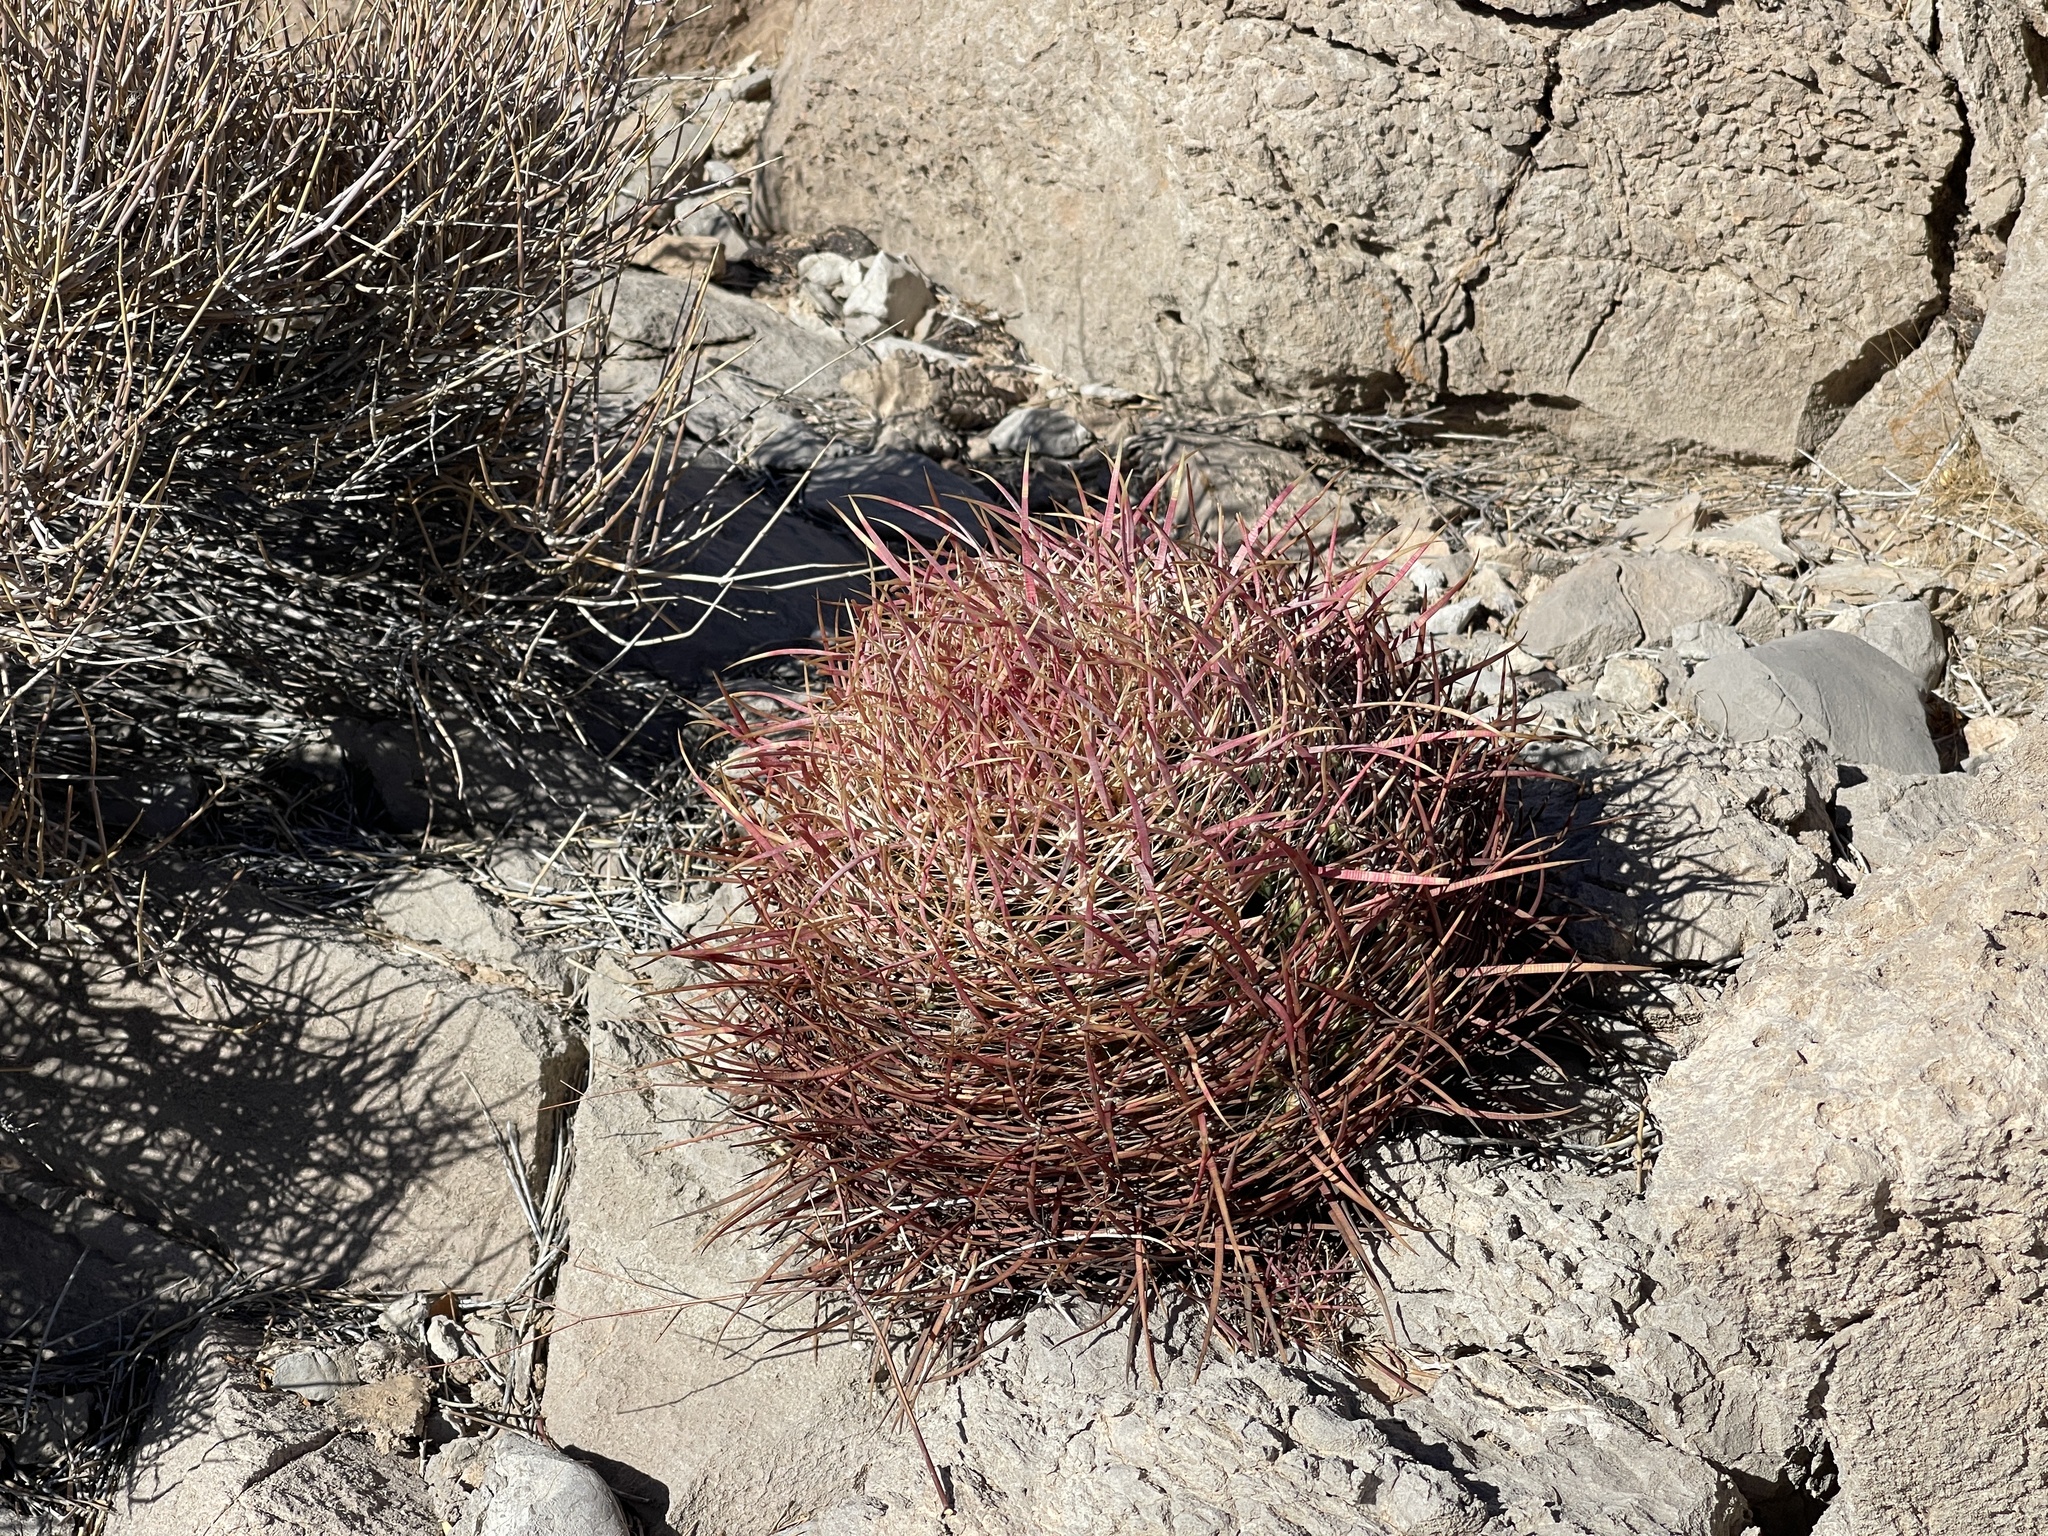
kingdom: Plantae
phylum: Tracheophyta
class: Magnoliopsida
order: Caryophyllales
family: Cactaceae
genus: Ferocactus
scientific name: Ferocactus cylindraceus
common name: California barrel cactus
